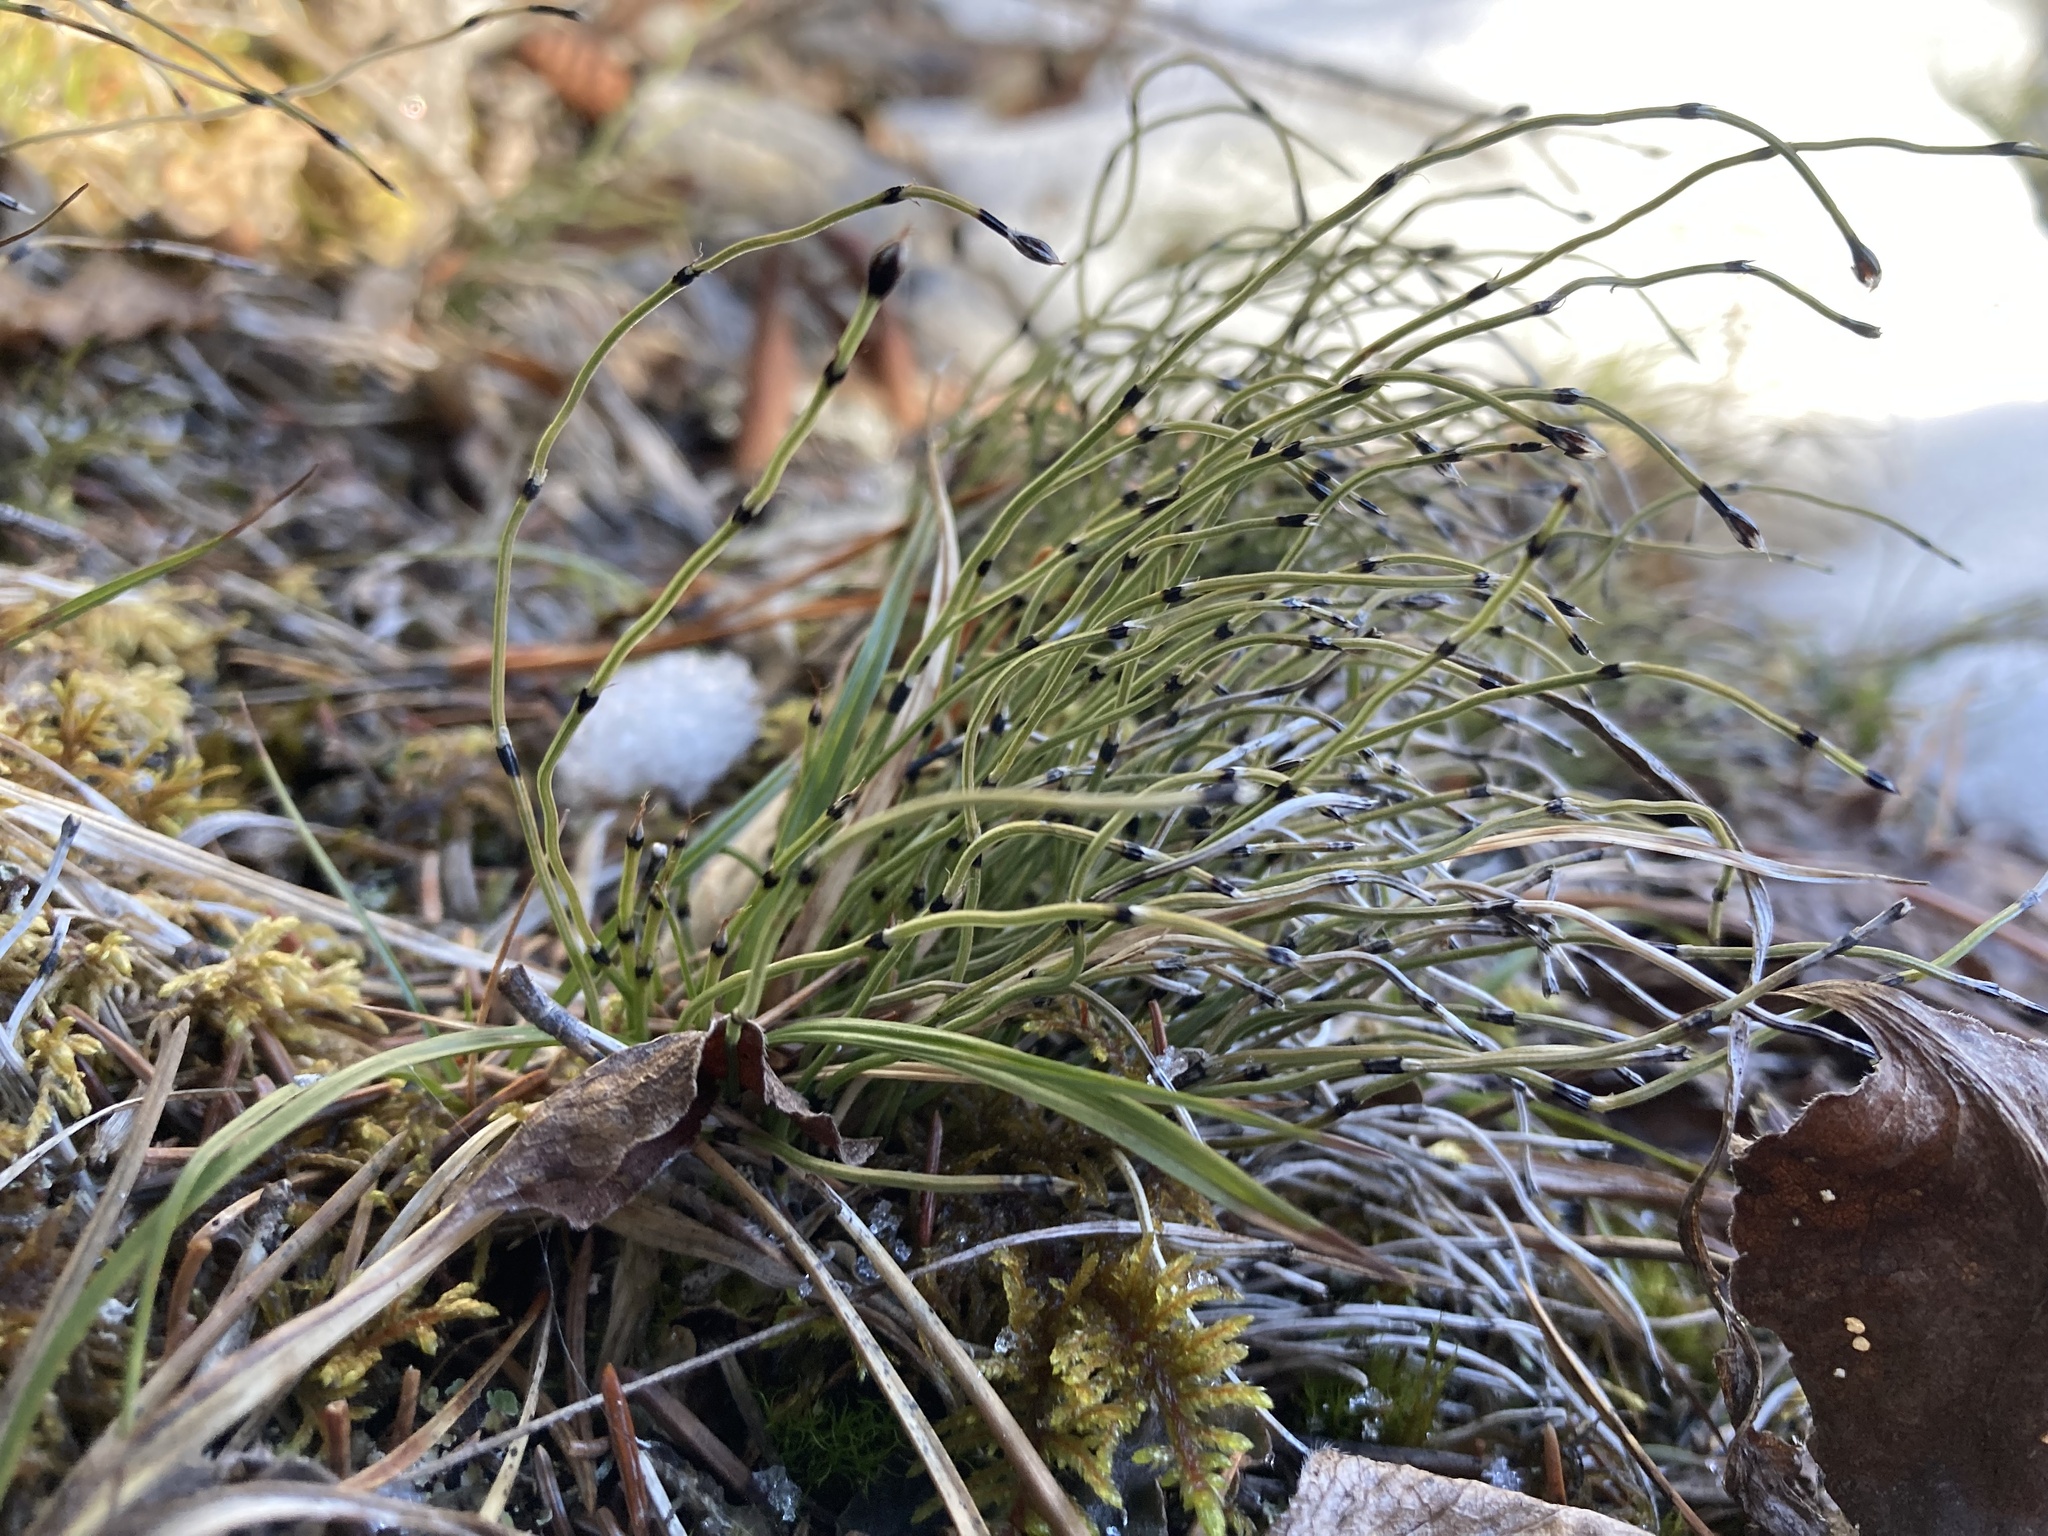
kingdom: Plantae
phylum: Tracheophyta
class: Polypodiopsida
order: Equisetales
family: Equisetaceae
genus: Equisetum
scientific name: Equisetum scirpoides
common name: Delicate horsetail
